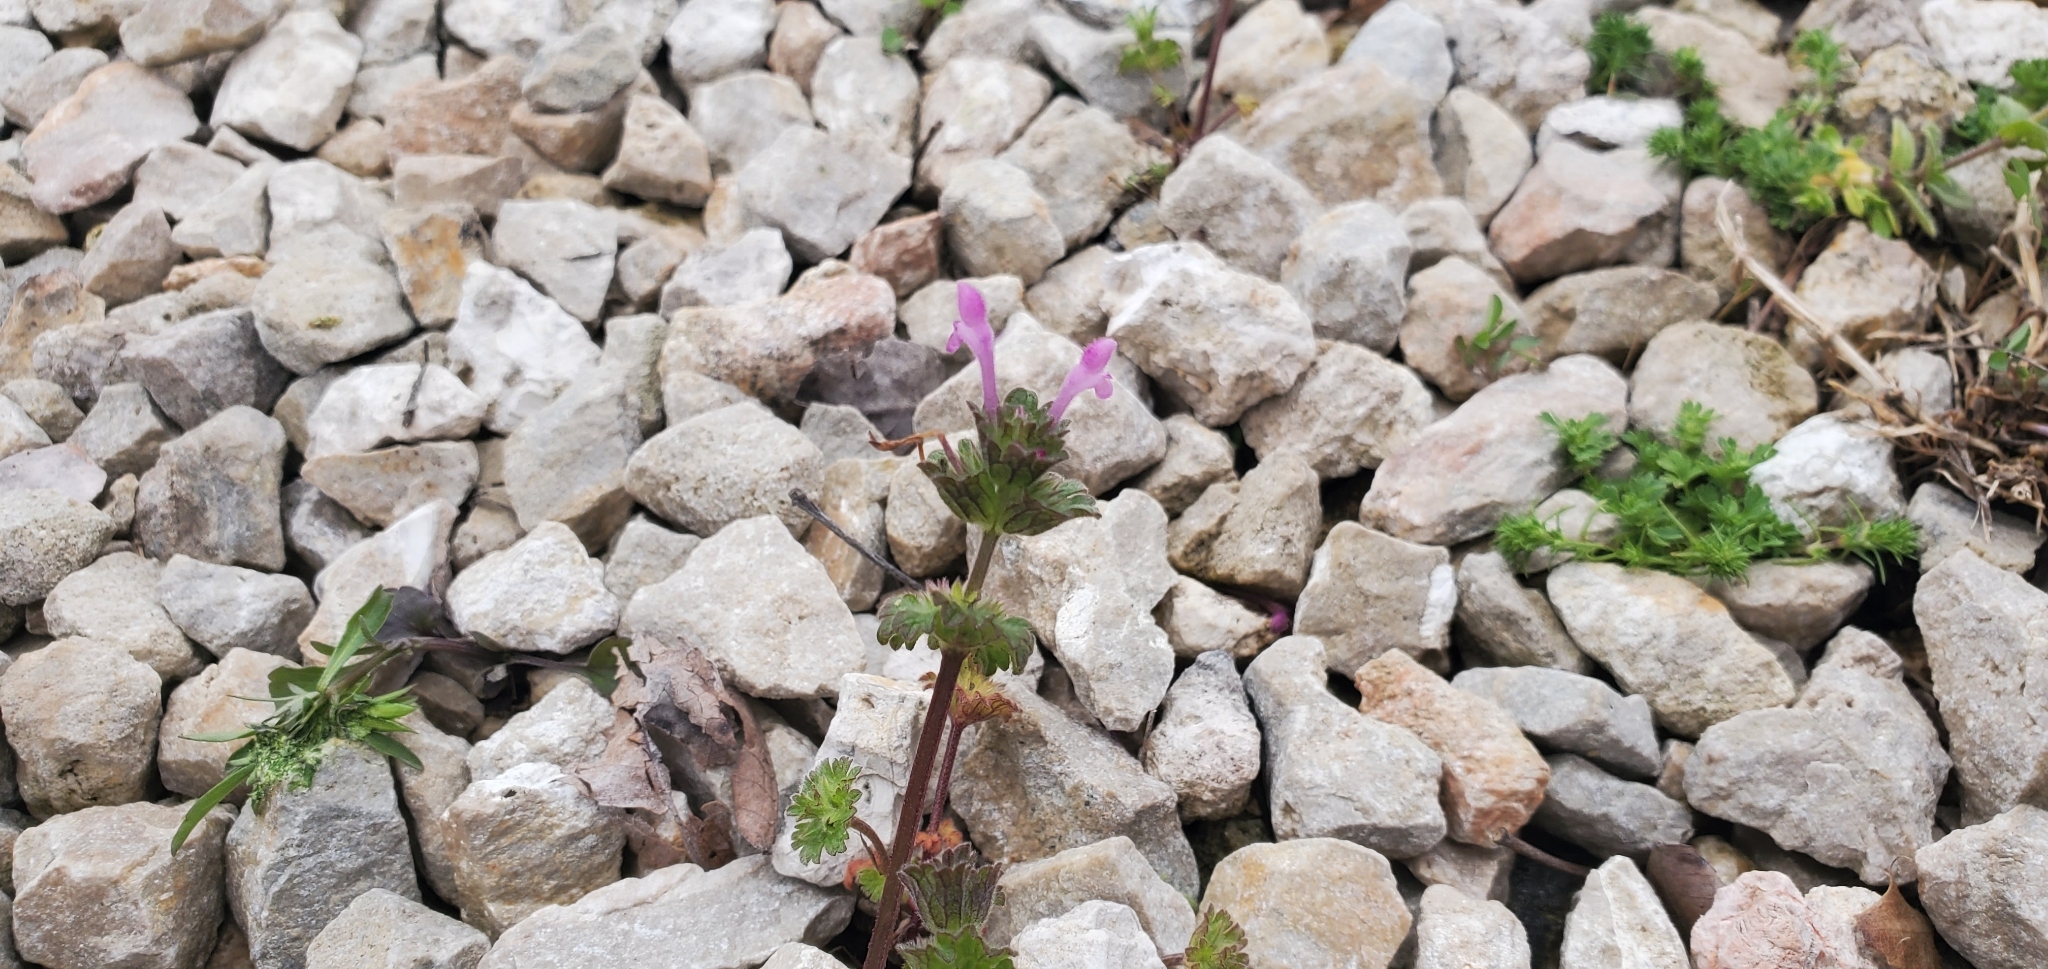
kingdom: Plantae
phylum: Tracheophyta
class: Magnoliopsida
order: Lamiales
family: Lamiaceae
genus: Lamium
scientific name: Lamium amplexicaule
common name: Henbit dead-nettle
